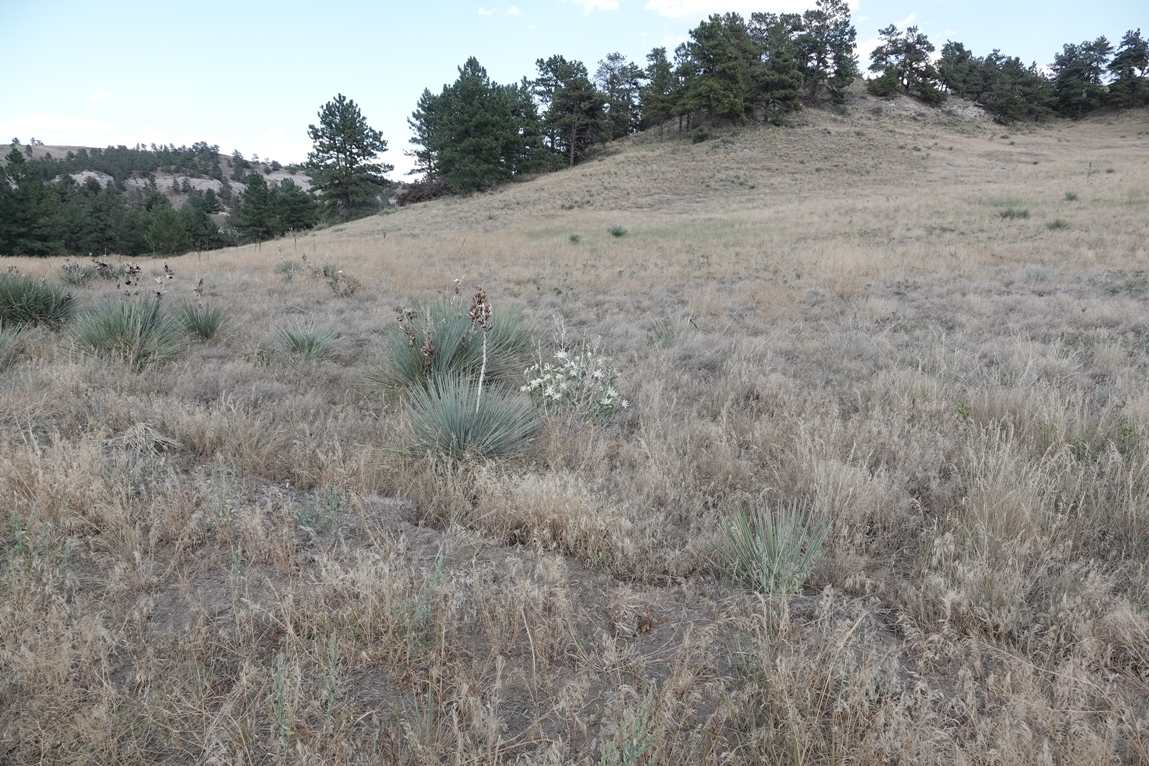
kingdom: Plantae
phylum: Tracheophyta
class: Magnoliopsida
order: Cornales
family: Loasaceae
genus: Mentzelia
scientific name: Mentzelia nuda
